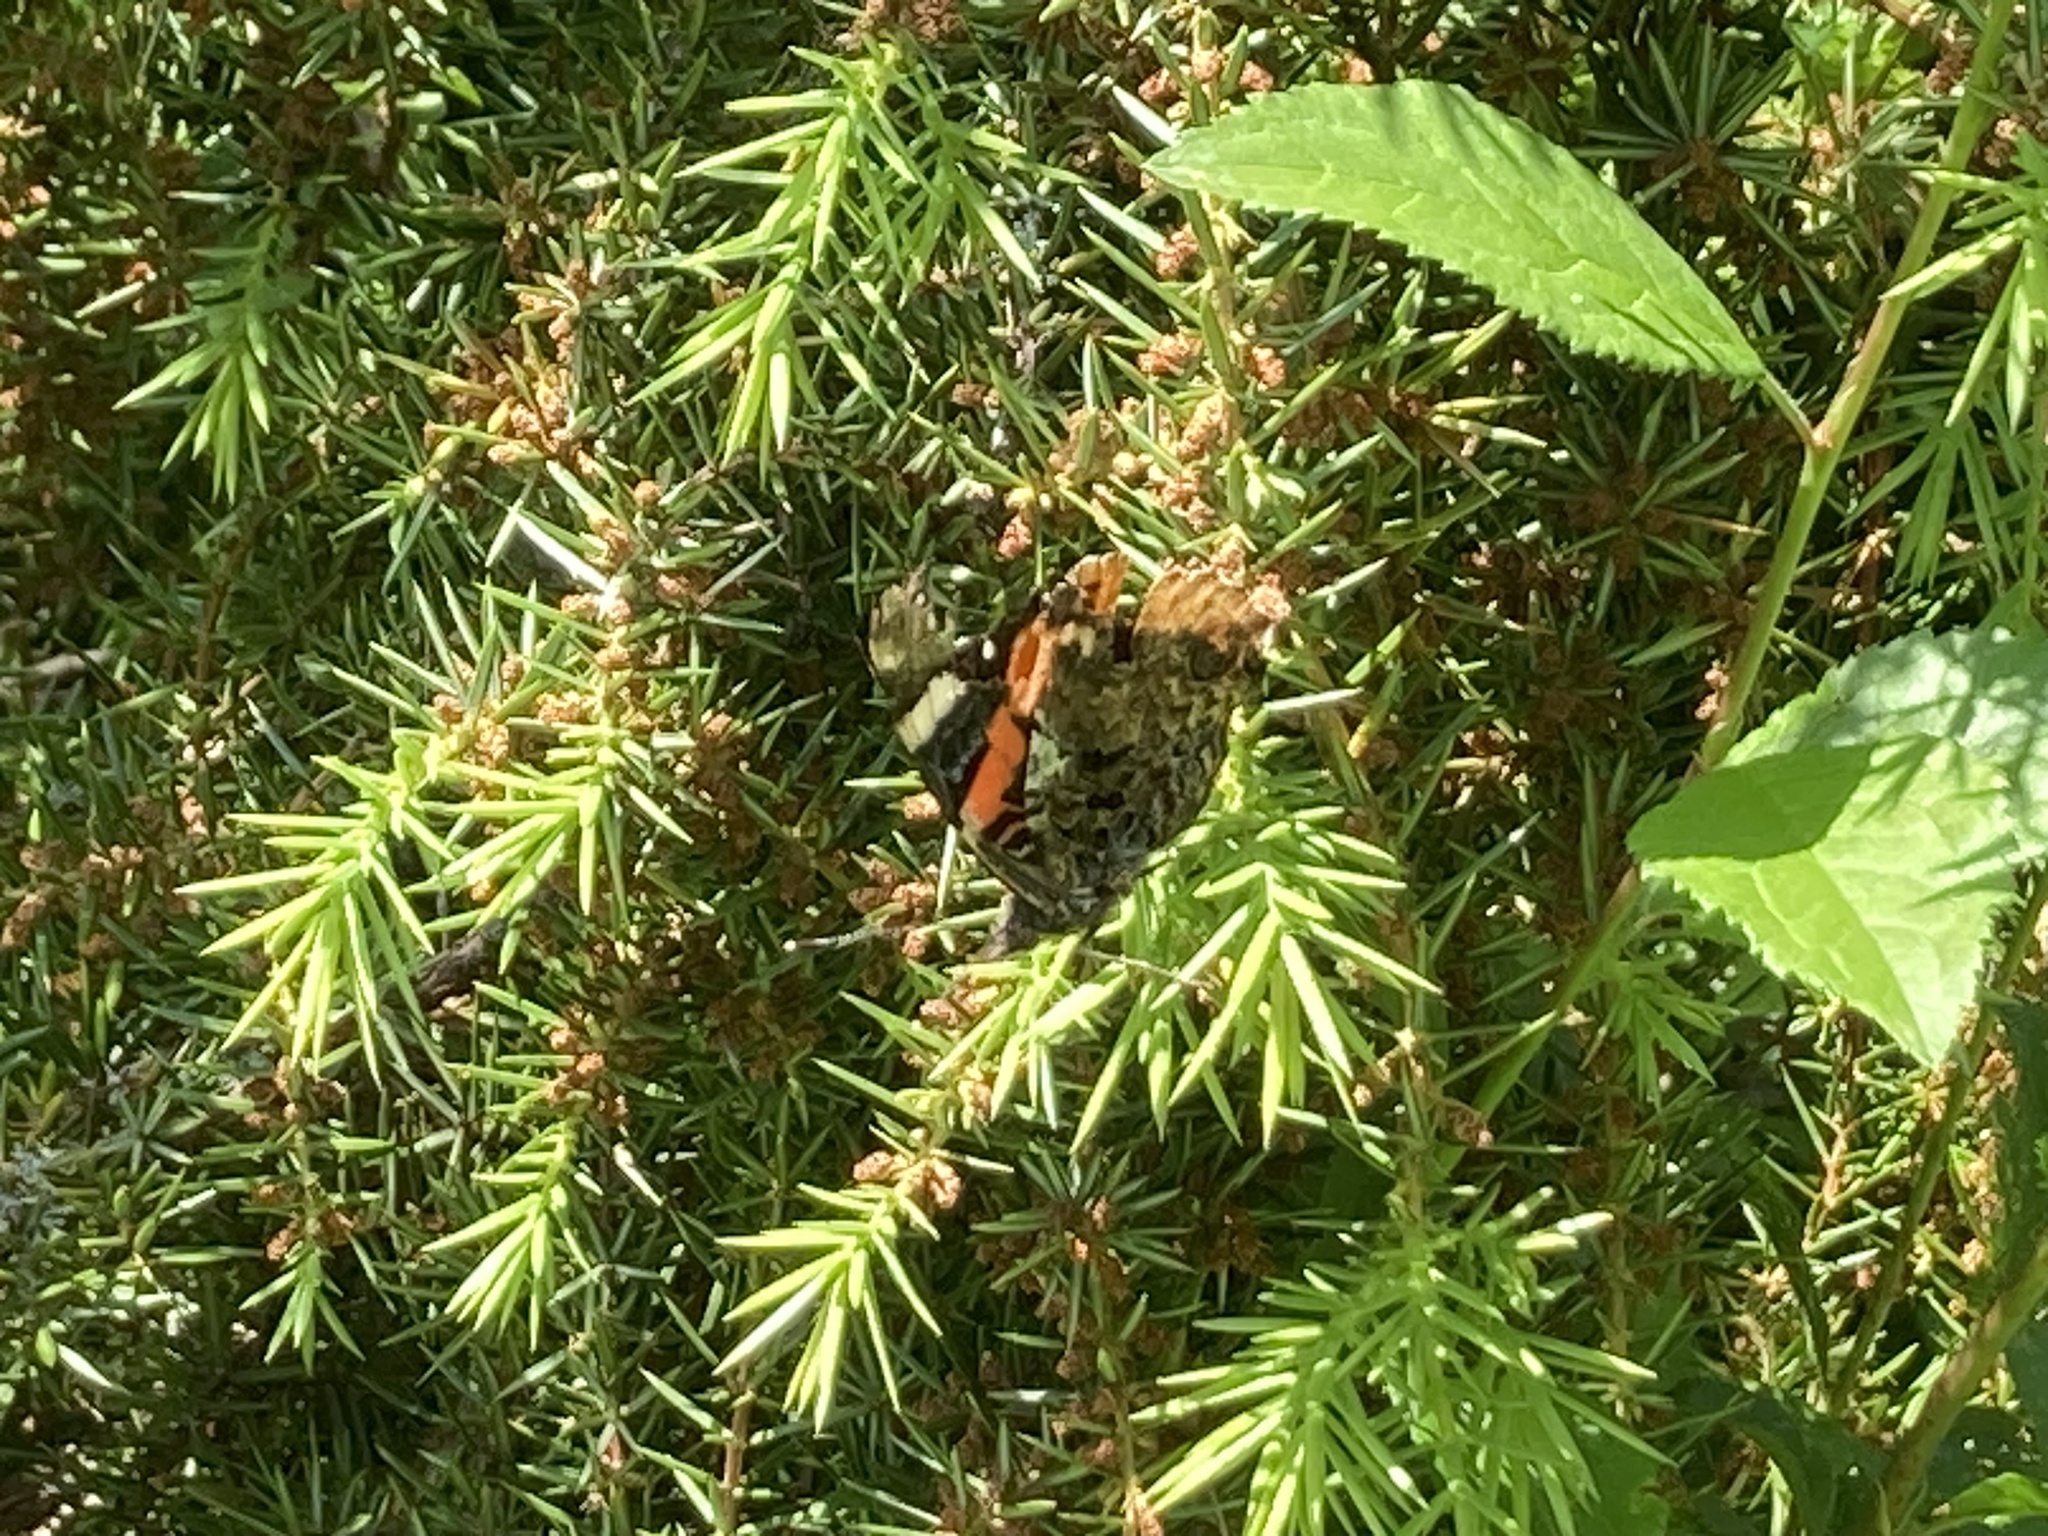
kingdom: Animalia
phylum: Arthropoda
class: Insecta
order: Lepidoptera
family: Nymphalidae
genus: Vanessa
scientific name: Vanessa atalanta
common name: Red admiral
